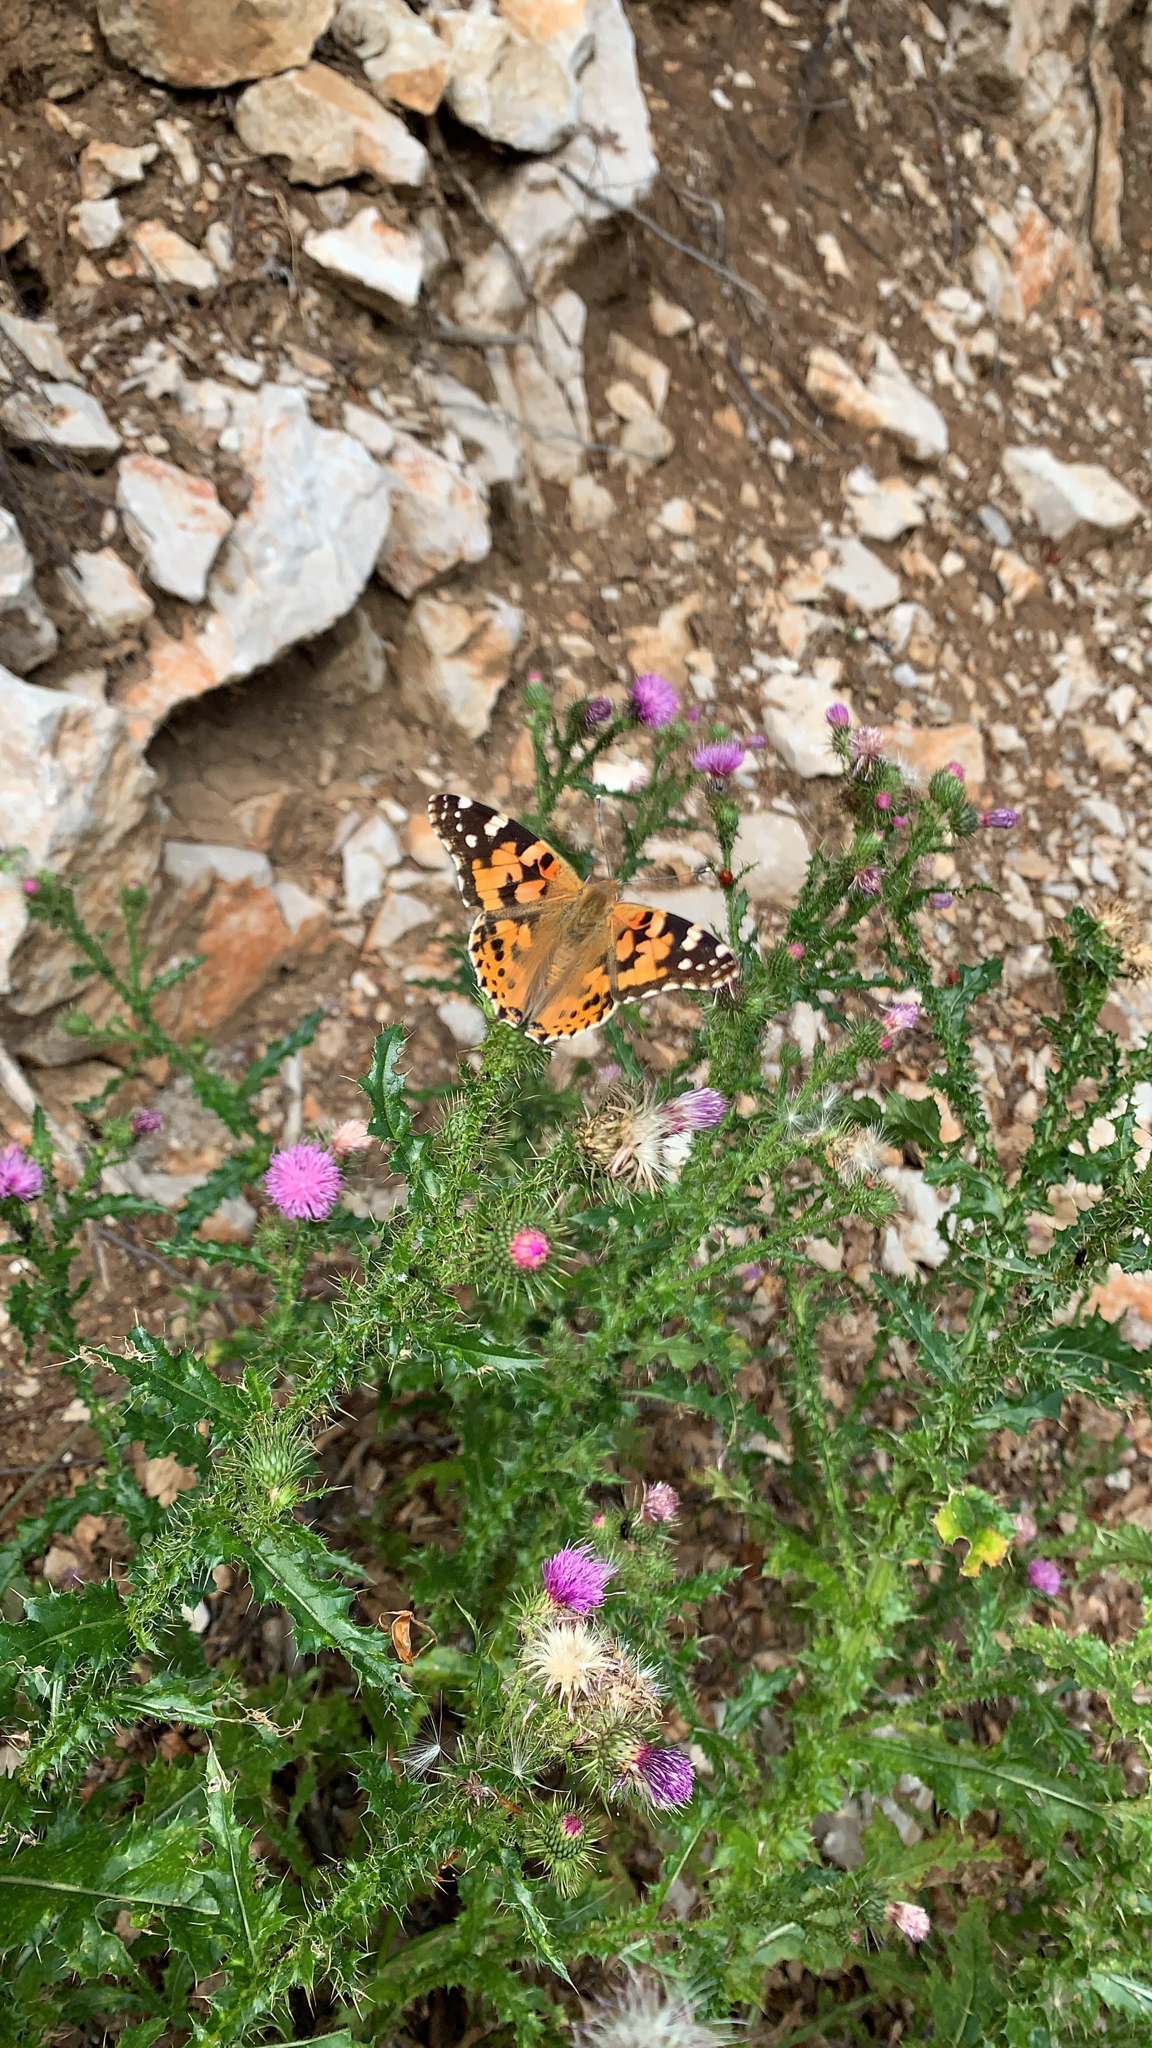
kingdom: Animalia
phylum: Arthropoda
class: Insecta
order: Lepidoptera
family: Nymphalidae
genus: Vanessa
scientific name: Vanessa cardui
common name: Painted lady
